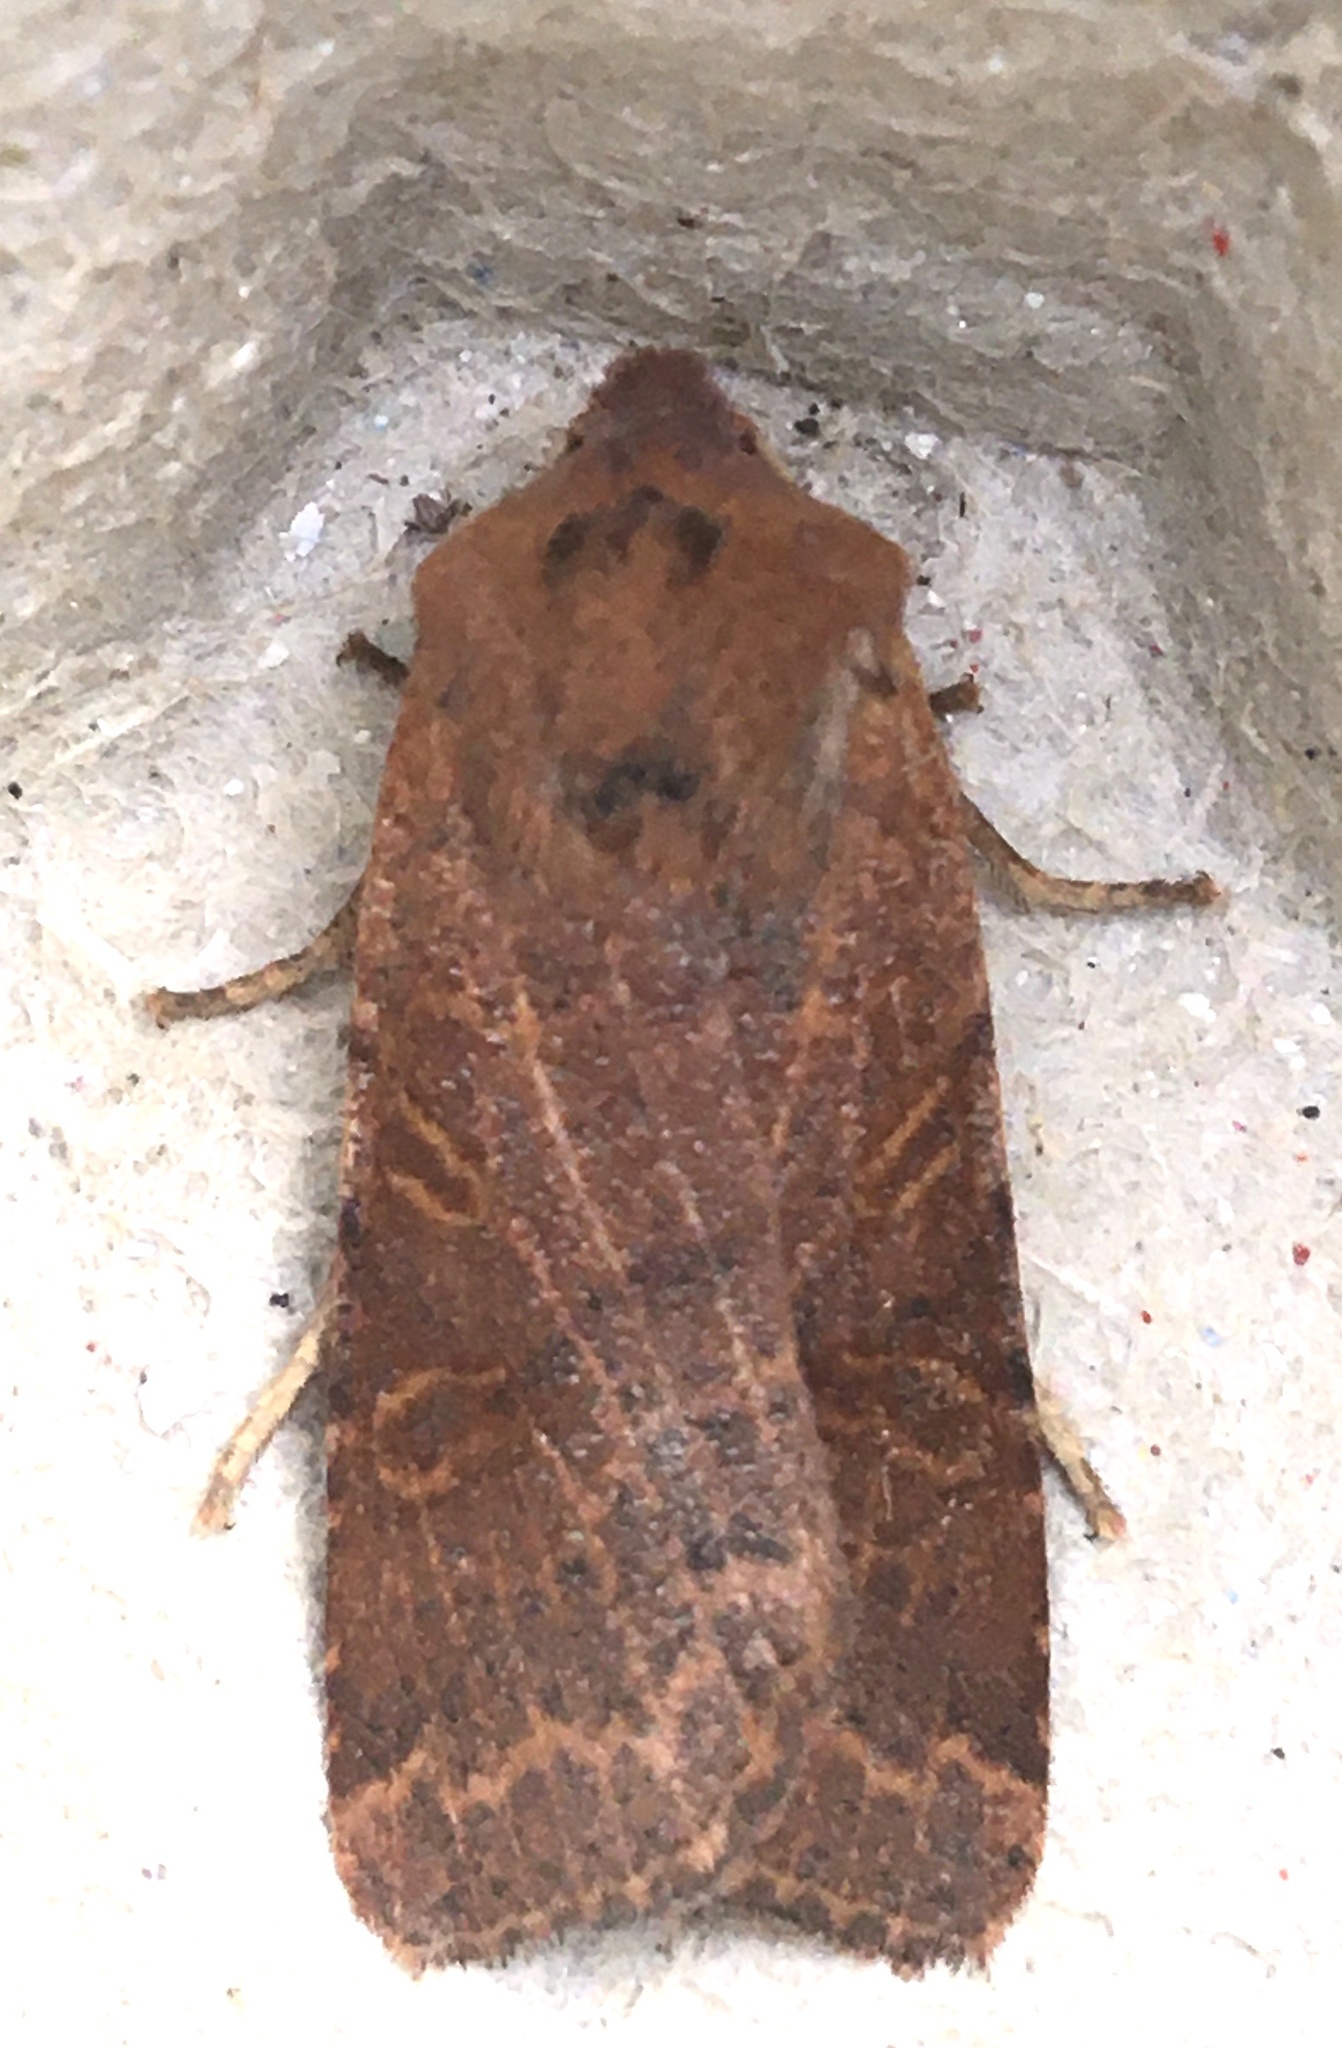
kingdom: Animalia
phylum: Arthropoda
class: Insecta
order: Lepidoptera
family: Noctuidae
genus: Agrochola
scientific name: Agrochola lychnidis
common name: Beaded chestnut
